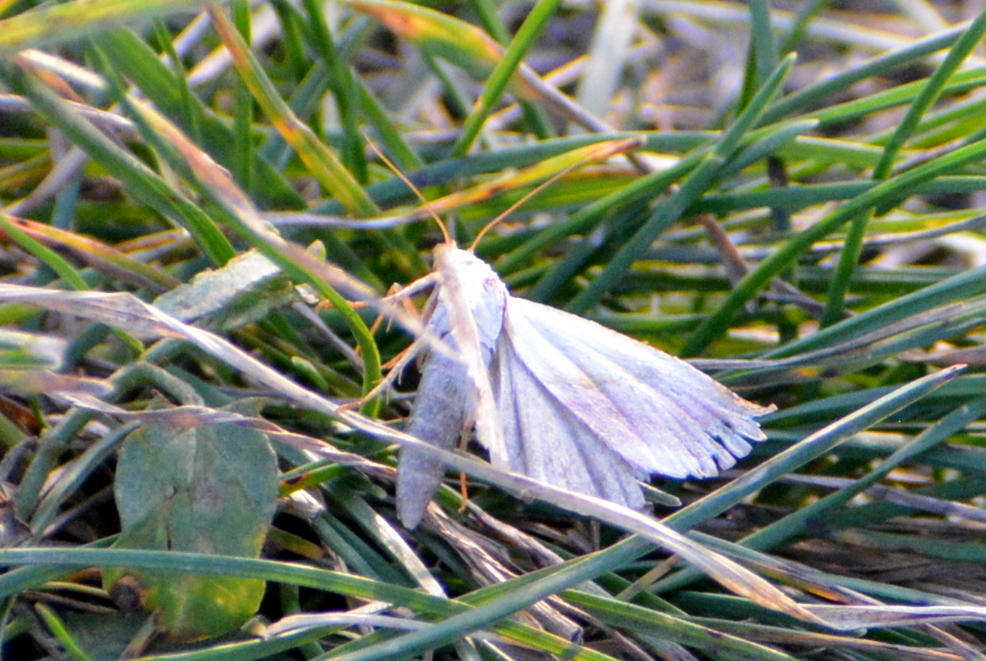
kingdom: Animalia
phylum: Arthropoda
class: Insecta
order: Lepidoptera
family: Noctuidae
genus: Eublemma
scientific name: Eublemma purpurina
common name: Beautiful marbled
